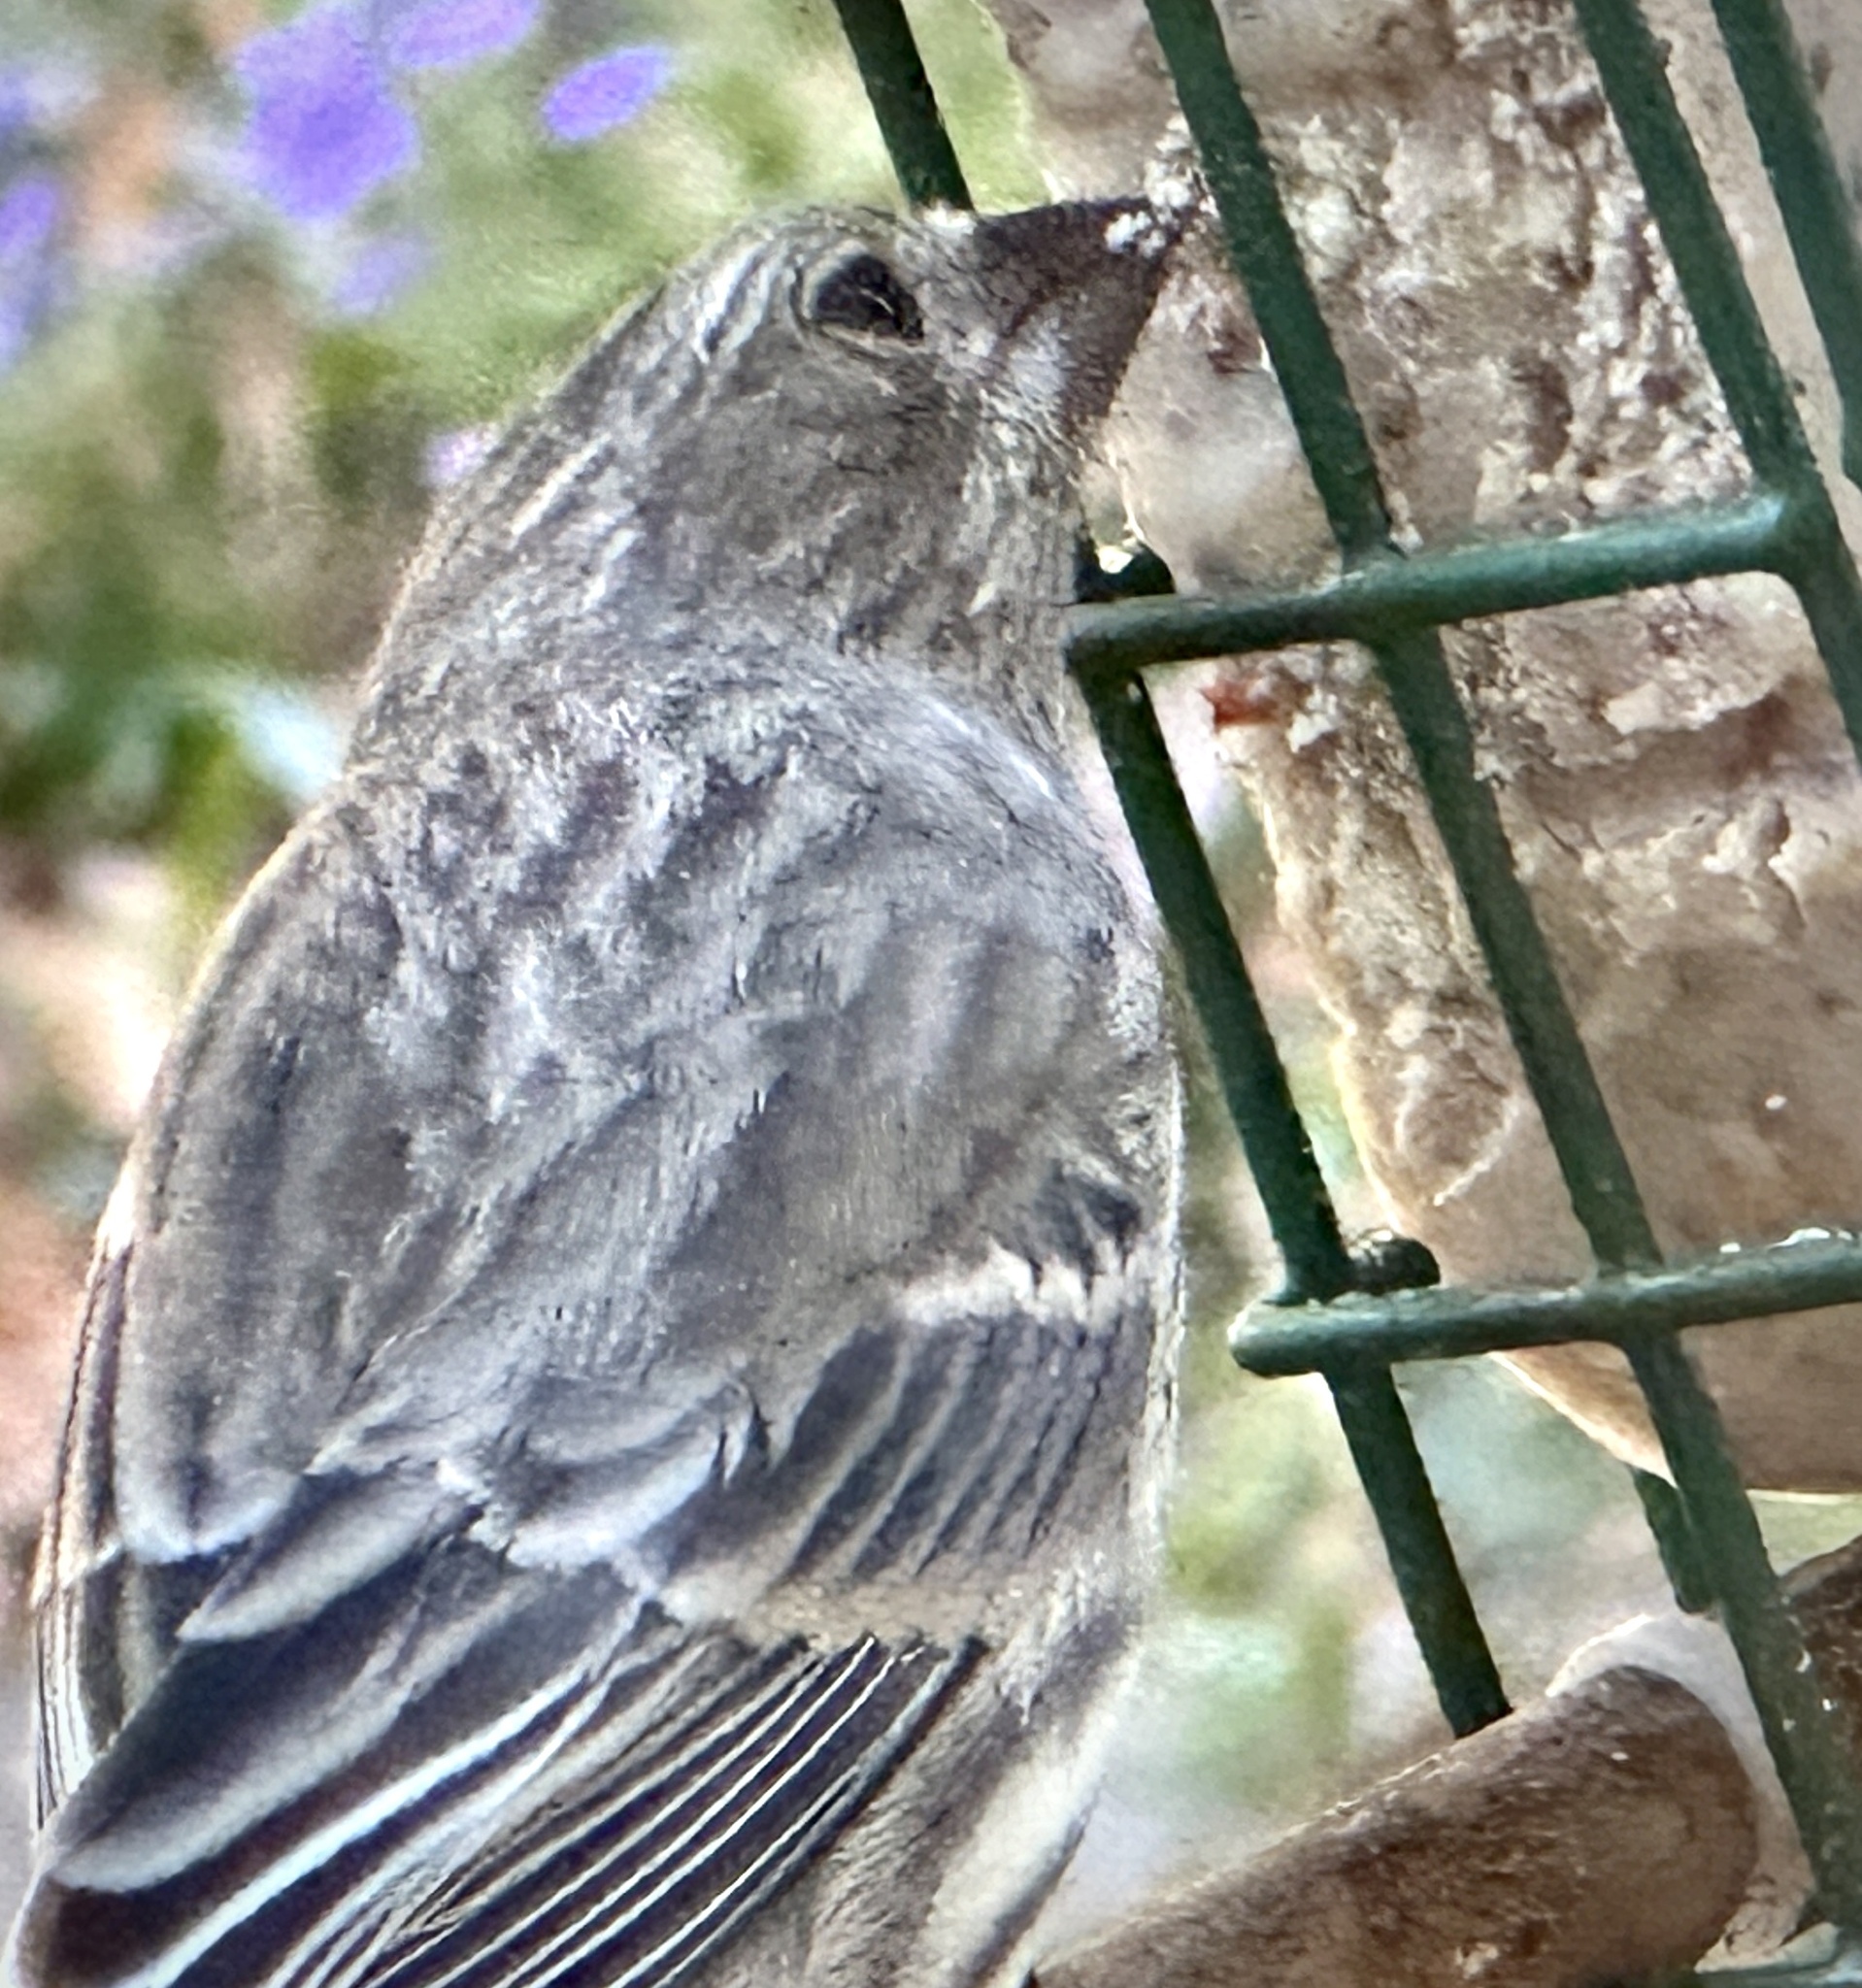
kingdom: Animalia
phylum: Chordata
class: Aves
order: Passeriformes
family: Fringillidae
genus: Haemorhous
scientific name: Haemorhous mexicanus
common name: House finch
